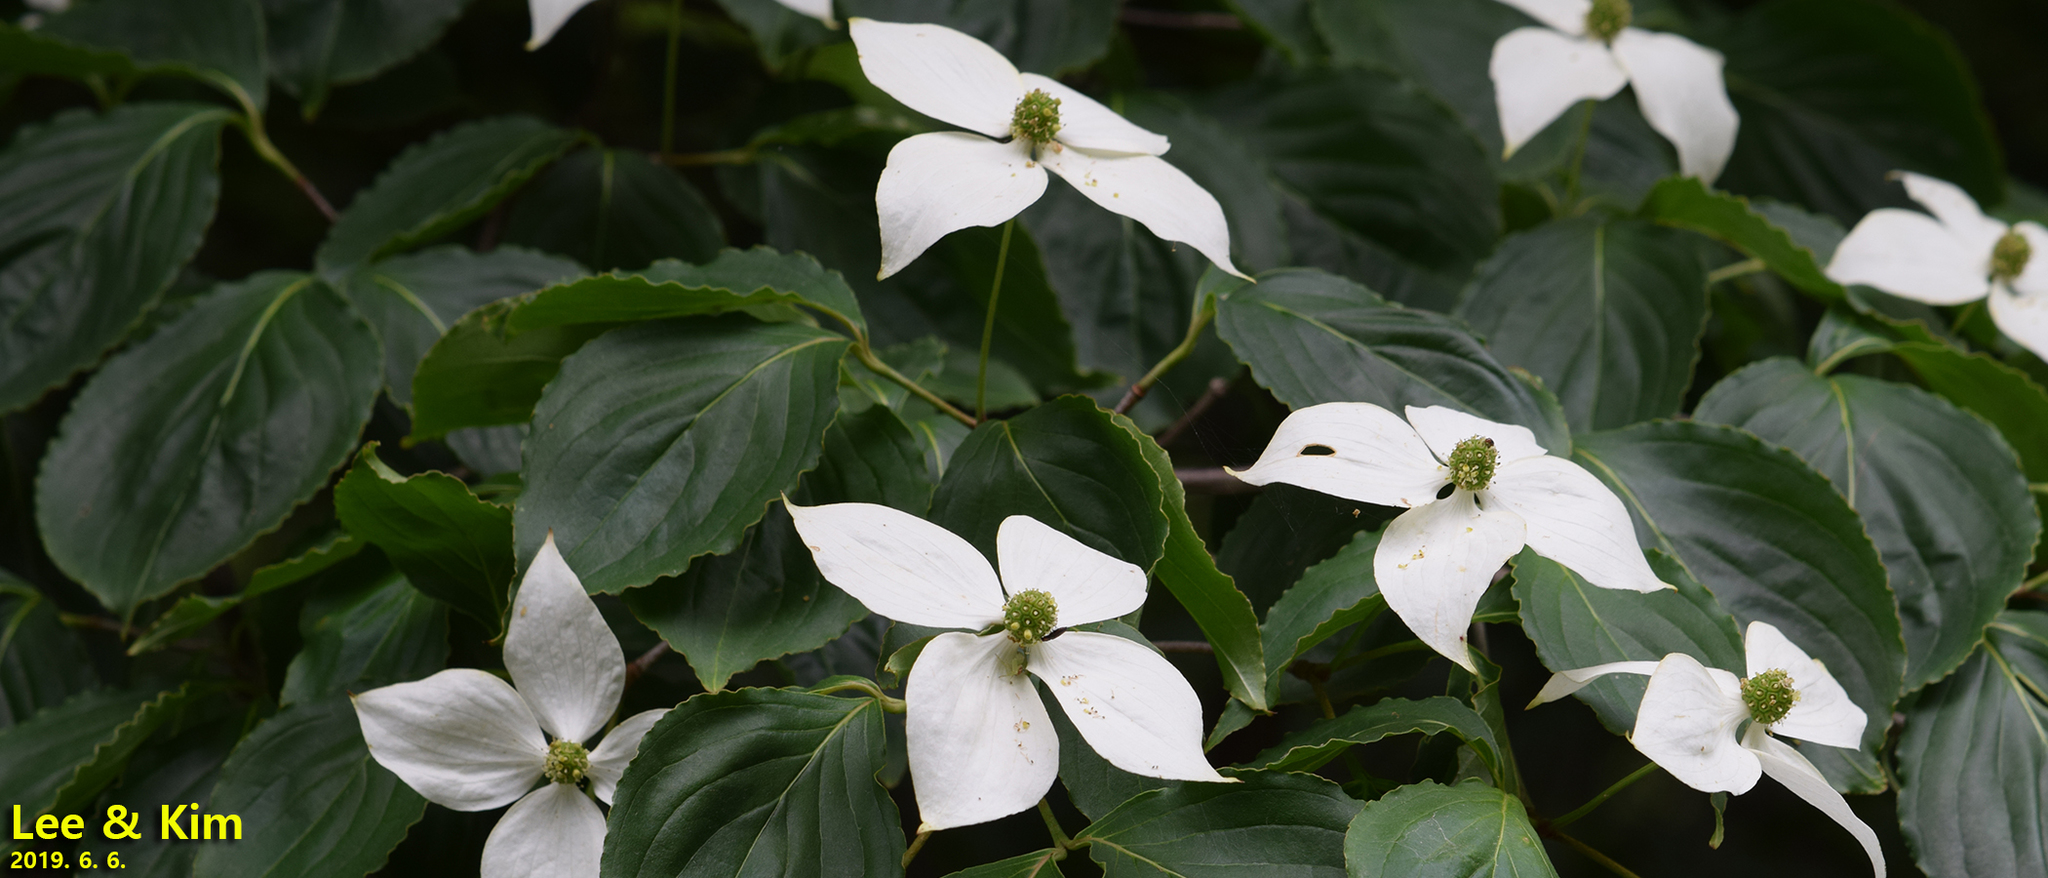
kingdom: Plantae
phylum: Tracheophyta
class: Magnoliopsida
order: Cornales
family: Cornaceae
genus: Cornus
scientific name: Cornus kousa
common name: Japanese dogwood
